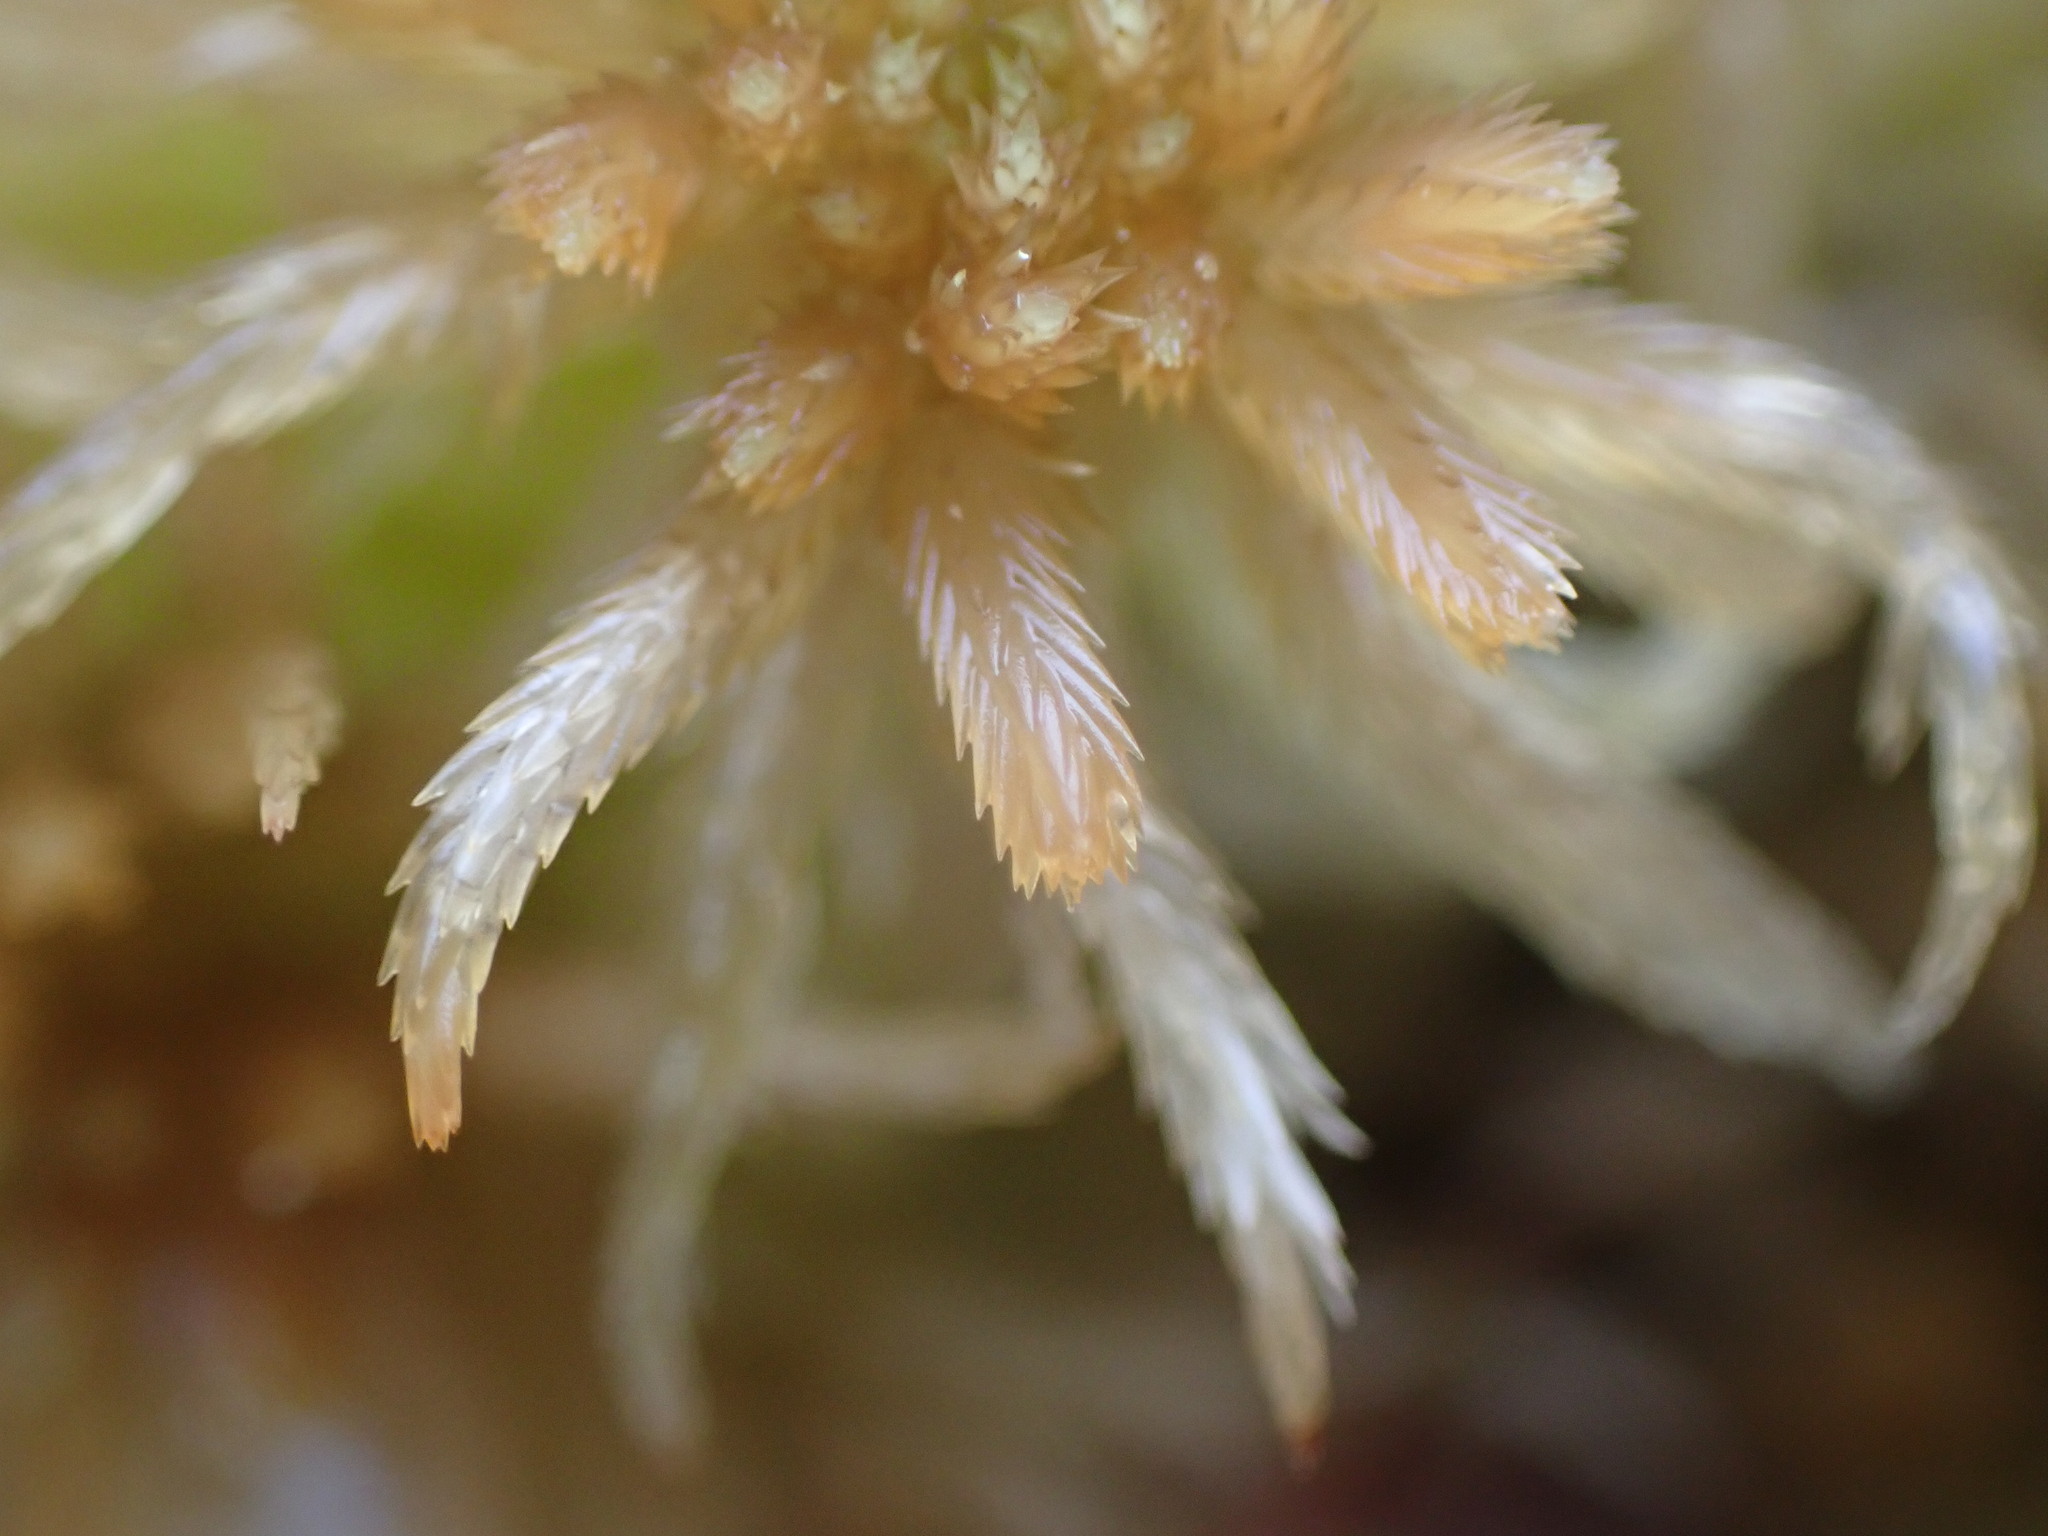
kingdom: Plantae
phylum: Bryophyta
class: Sphagnopsida
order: Sphagnales
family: Sphagnaceae
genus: Sphagnum
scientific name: Sphagnum pacificum
